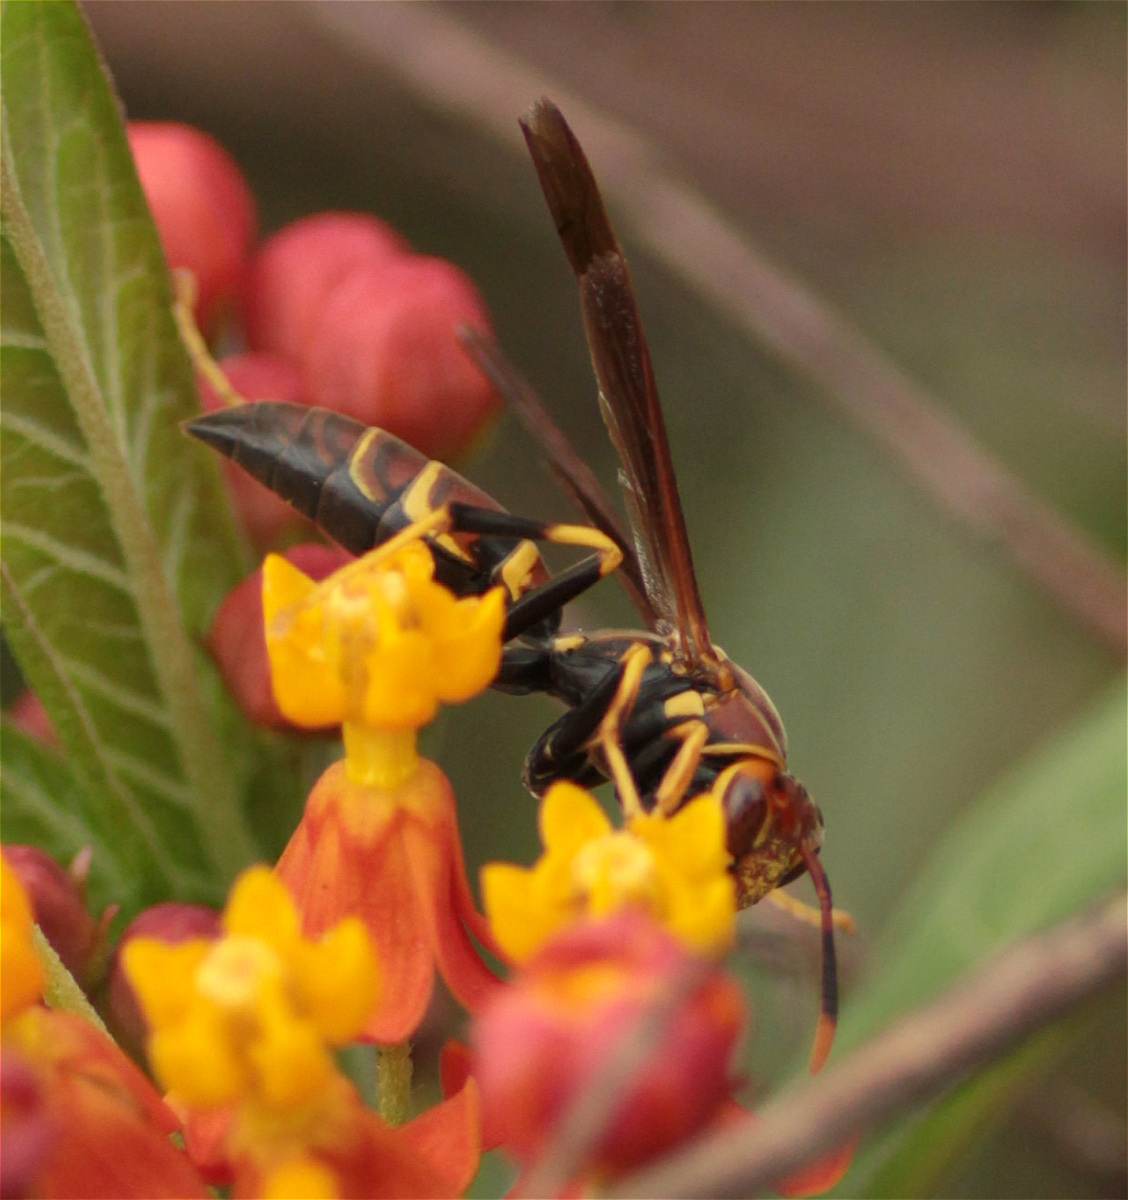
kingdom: Animalia
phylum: Arthropoda
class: Insecta
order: Hymenoptera
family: Eumenidae
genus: Polistes
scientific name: Polistes instabilis
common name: Unstable paper wasp
